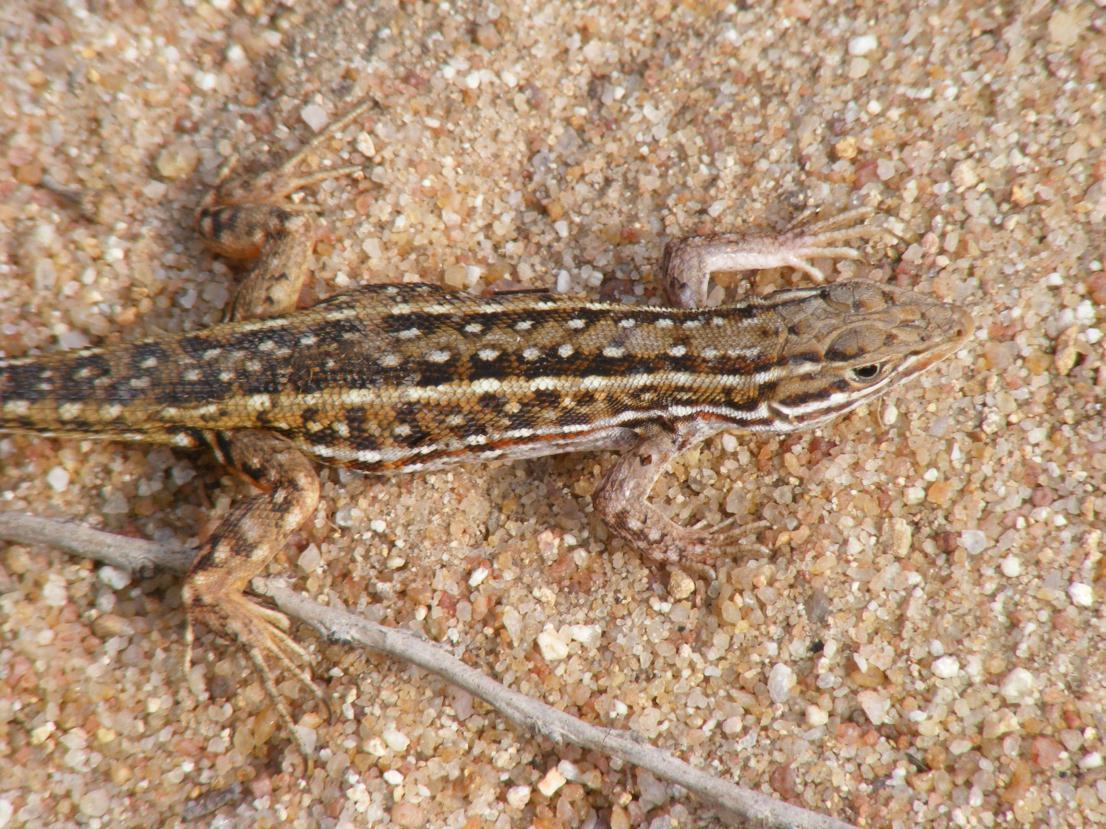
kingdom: Animalia
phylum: Chordata
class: Squamata
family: Lacertidae
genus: Meroles
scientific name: Meroles squamulosus
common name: Common desert lizard
